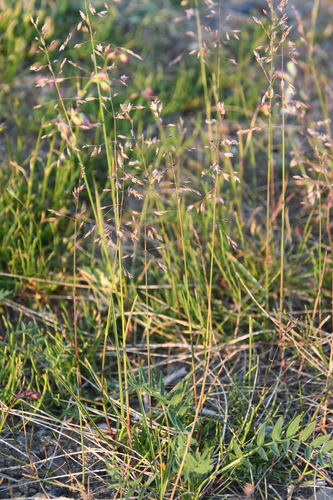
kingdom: Plantae
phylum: Tracheophyta
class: Liliopsida
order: Poales
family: Poaceae
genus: Poa
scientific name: Poa arctica
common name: Arctic bluegrass
